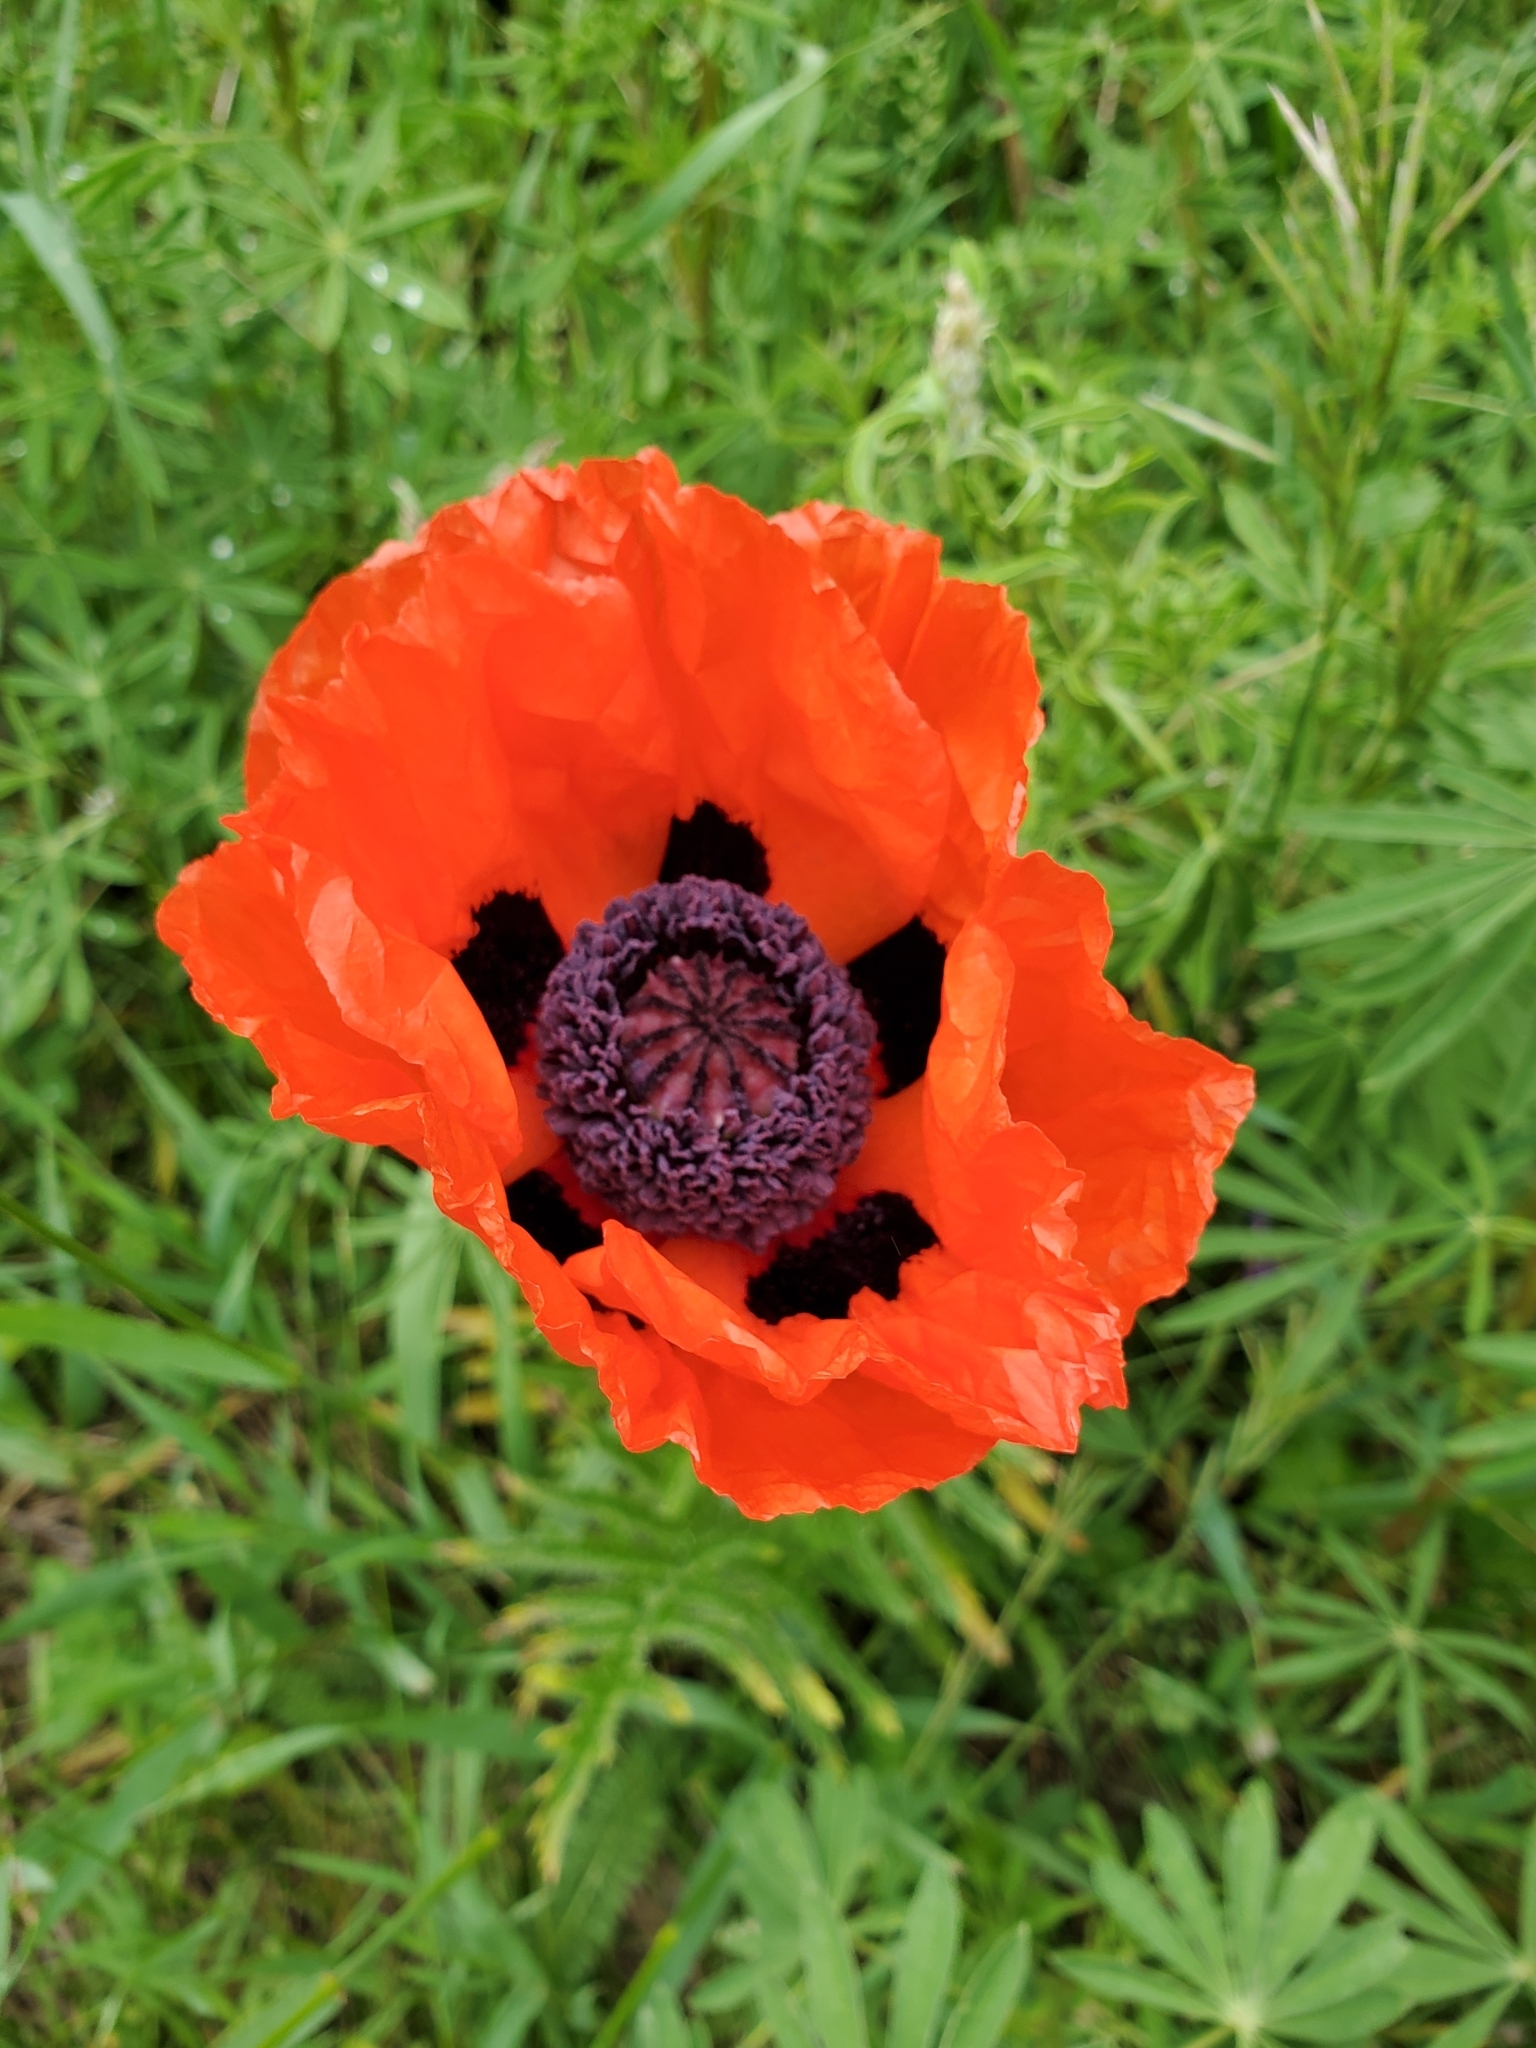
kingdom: Plantae
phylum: Tracheophyta
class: Magnoliopsida
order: Ranunculales
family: Papaveraceae
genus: Papaver
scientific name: Papaver orientale
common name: Oriental poppy
